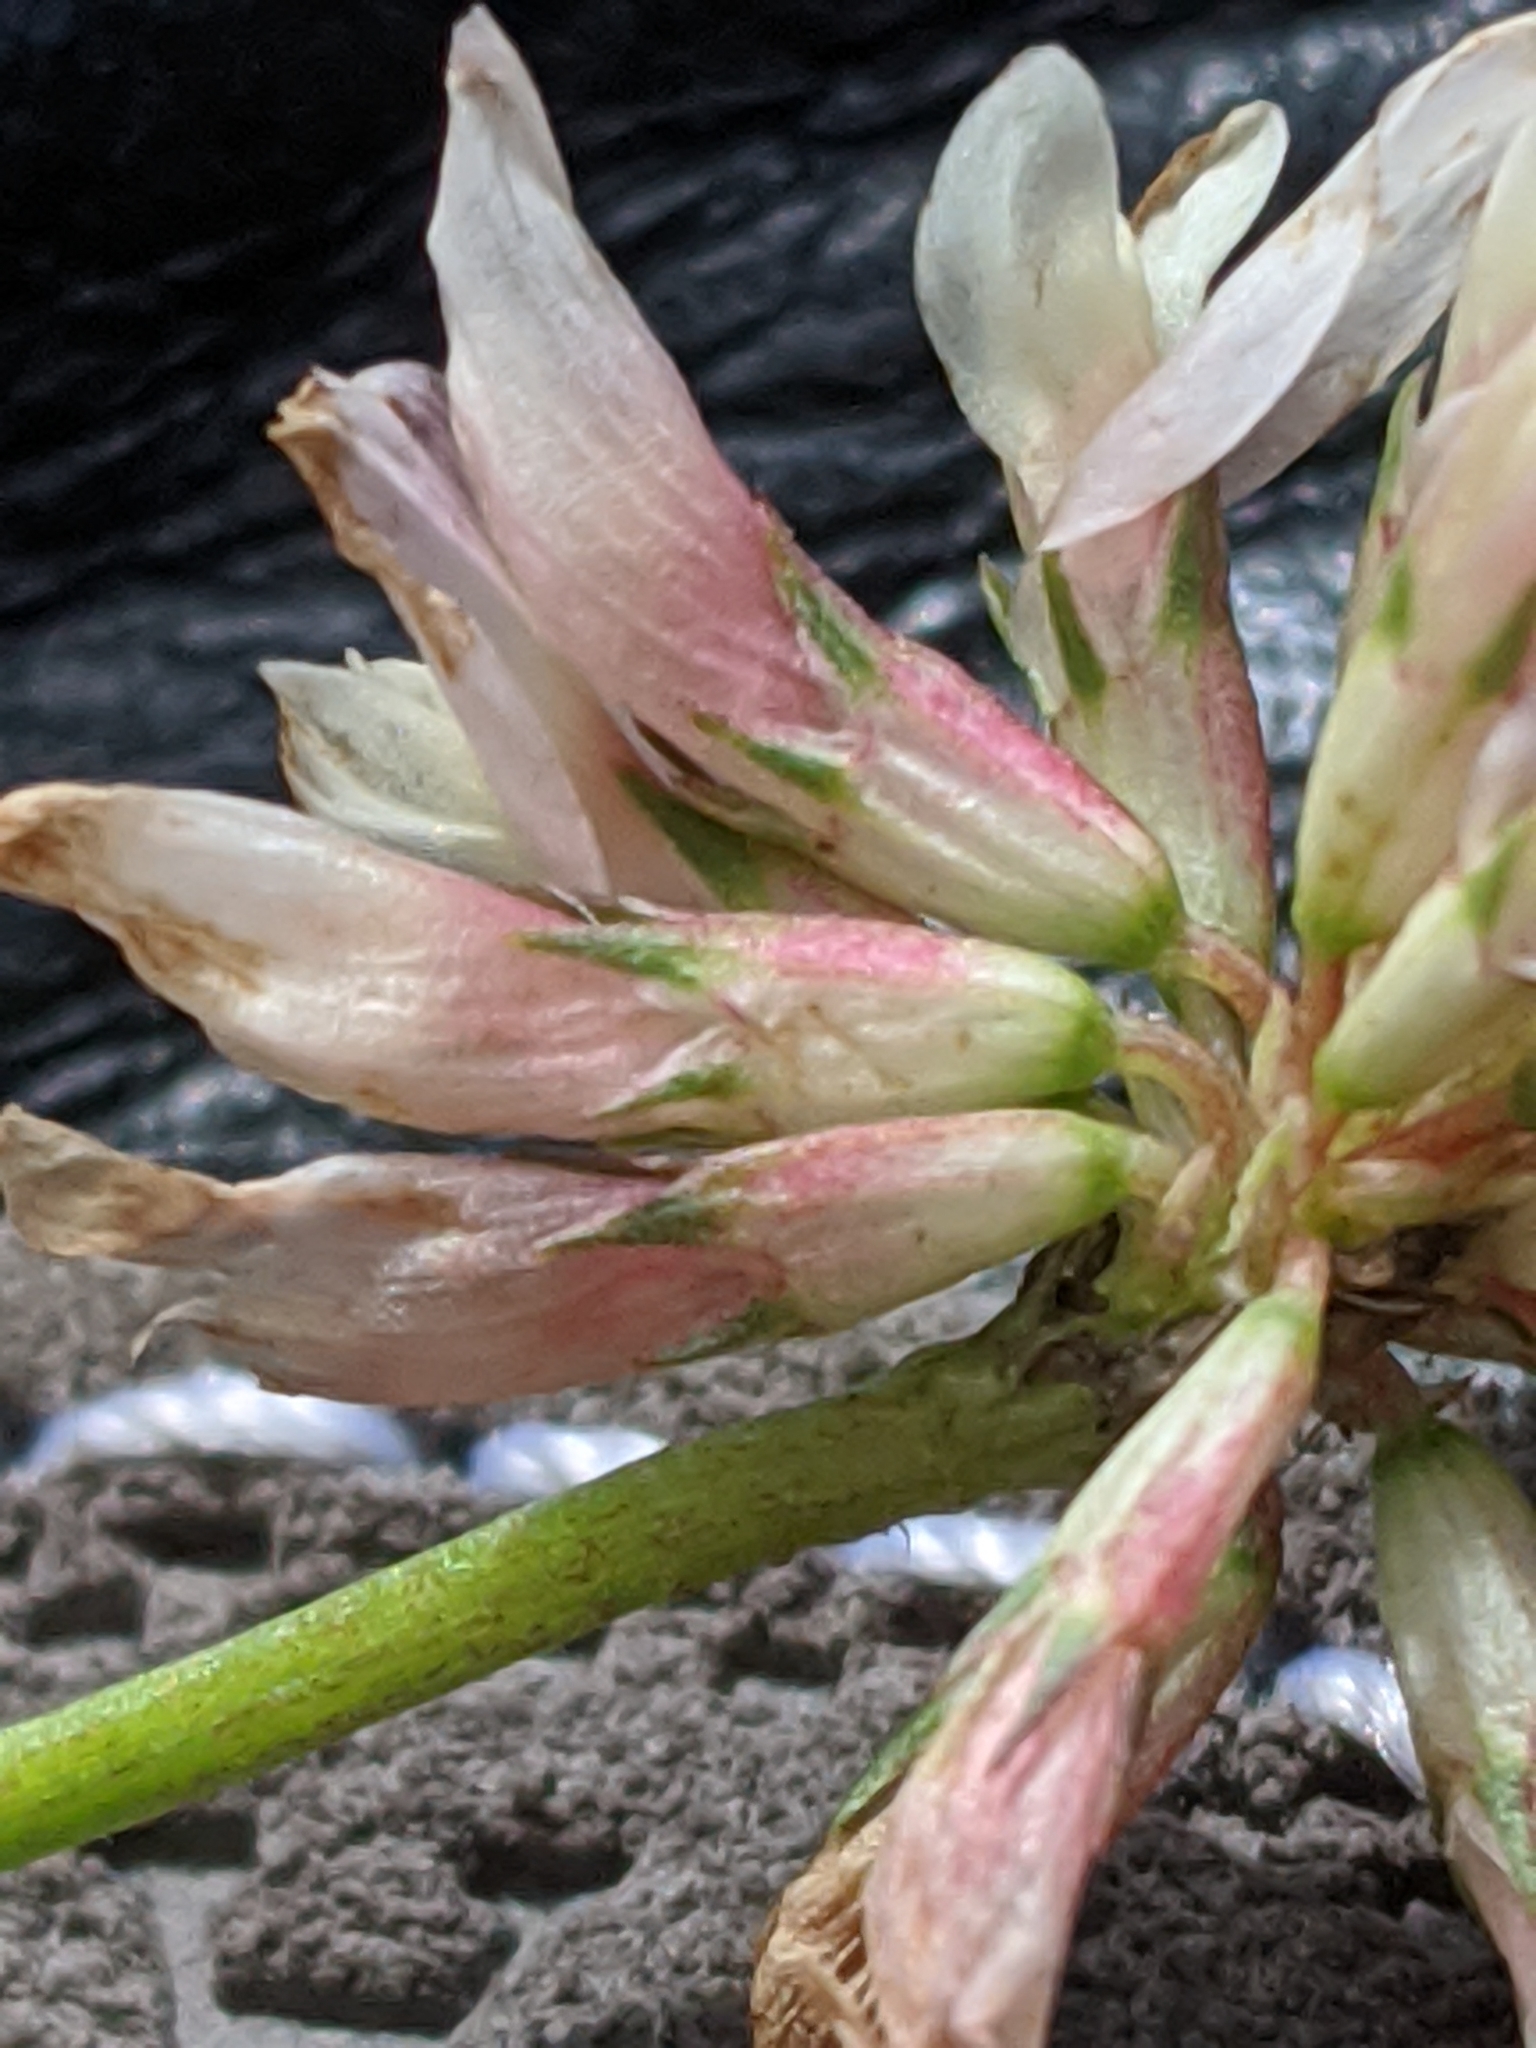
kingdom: Plantae
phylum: Tracheophyta
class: Magnoliopsida
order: Fabales
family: Fabaceae
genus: Trifolium
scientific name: Trifolium repens
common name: White clover
